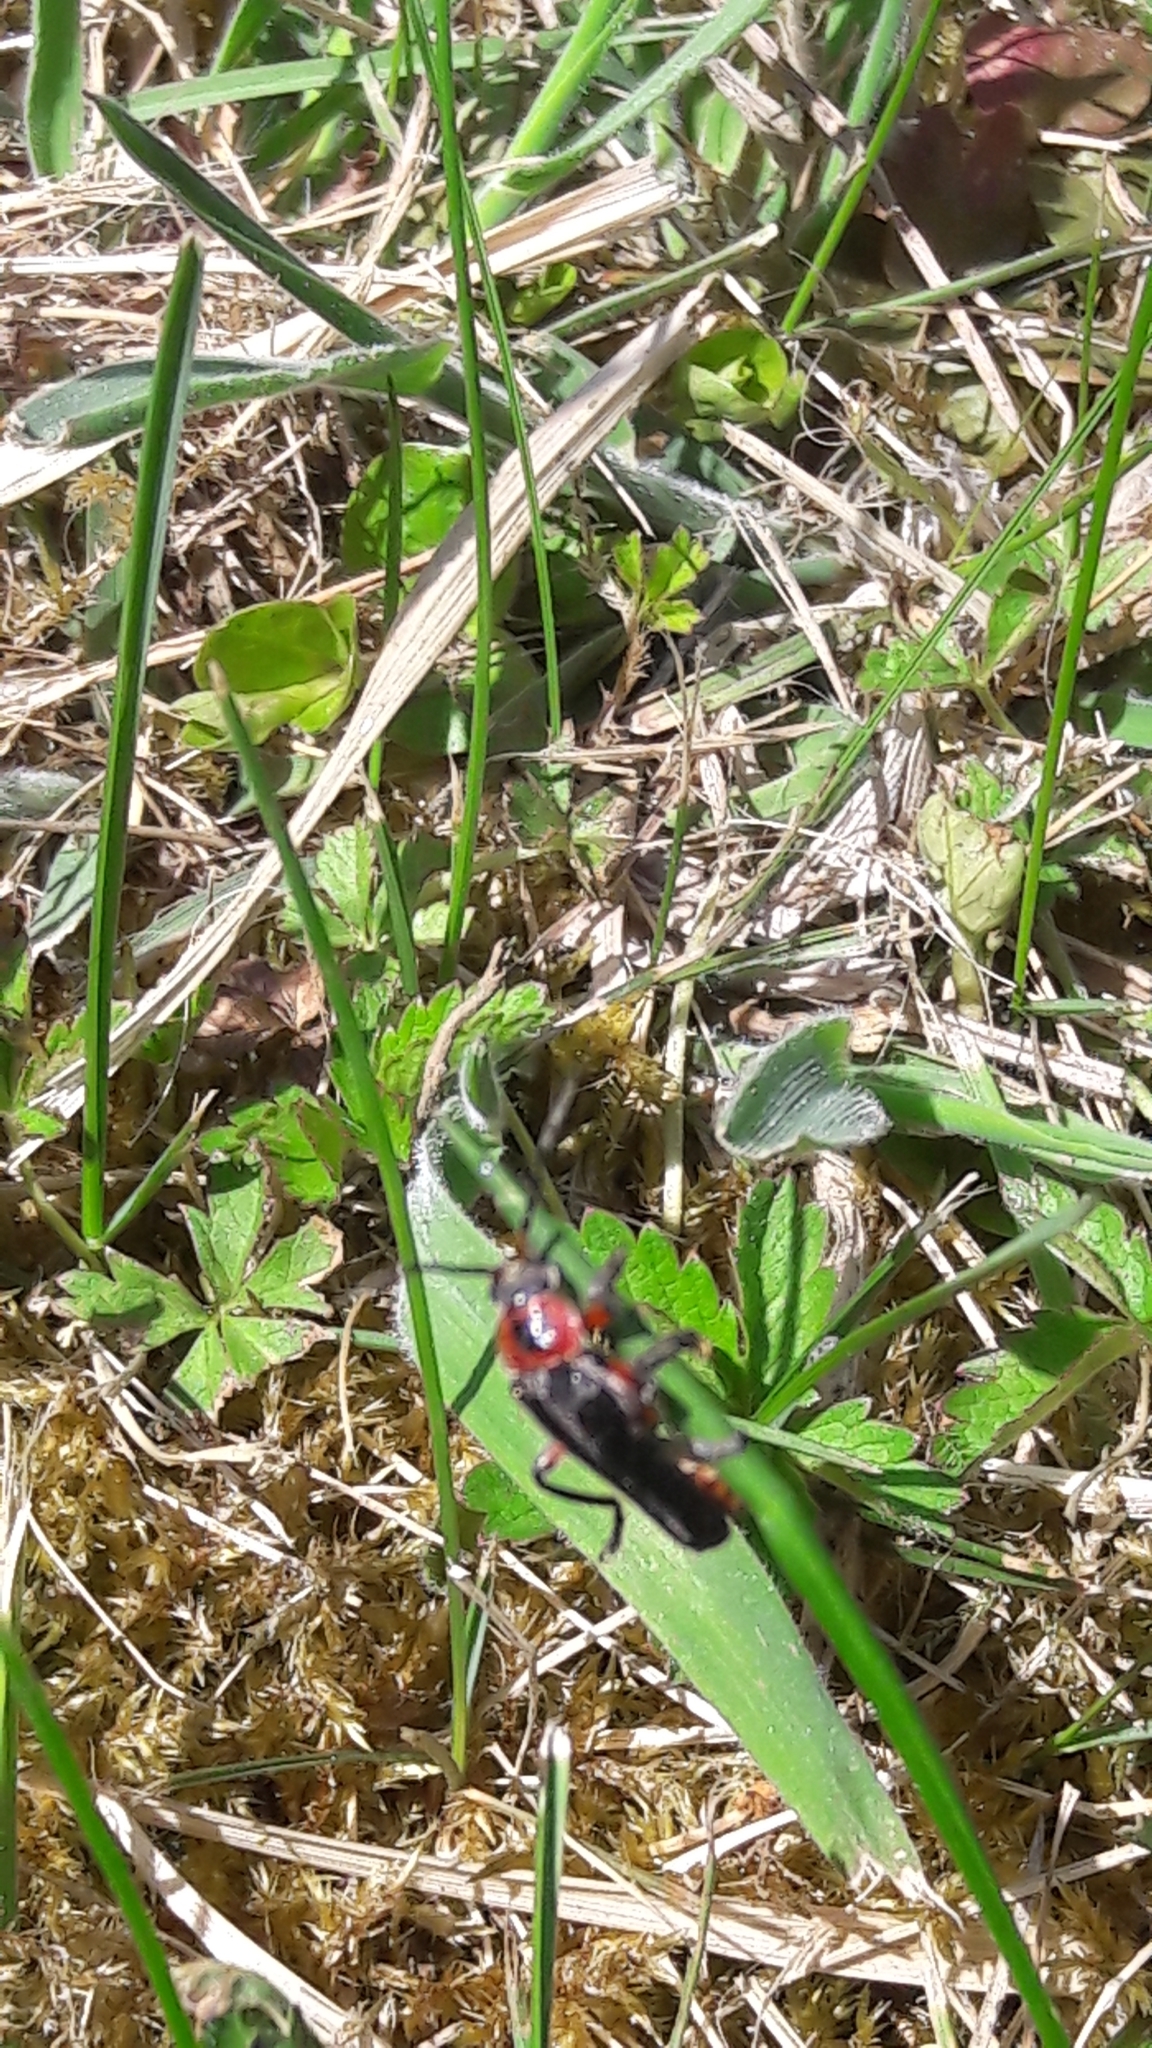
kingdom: Animalia
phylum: Arthropoda
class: Insecta
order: Coleoptera
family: Cantharidae
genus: Cantharis
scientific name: Cantharis rustica
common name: Soldier beetle
